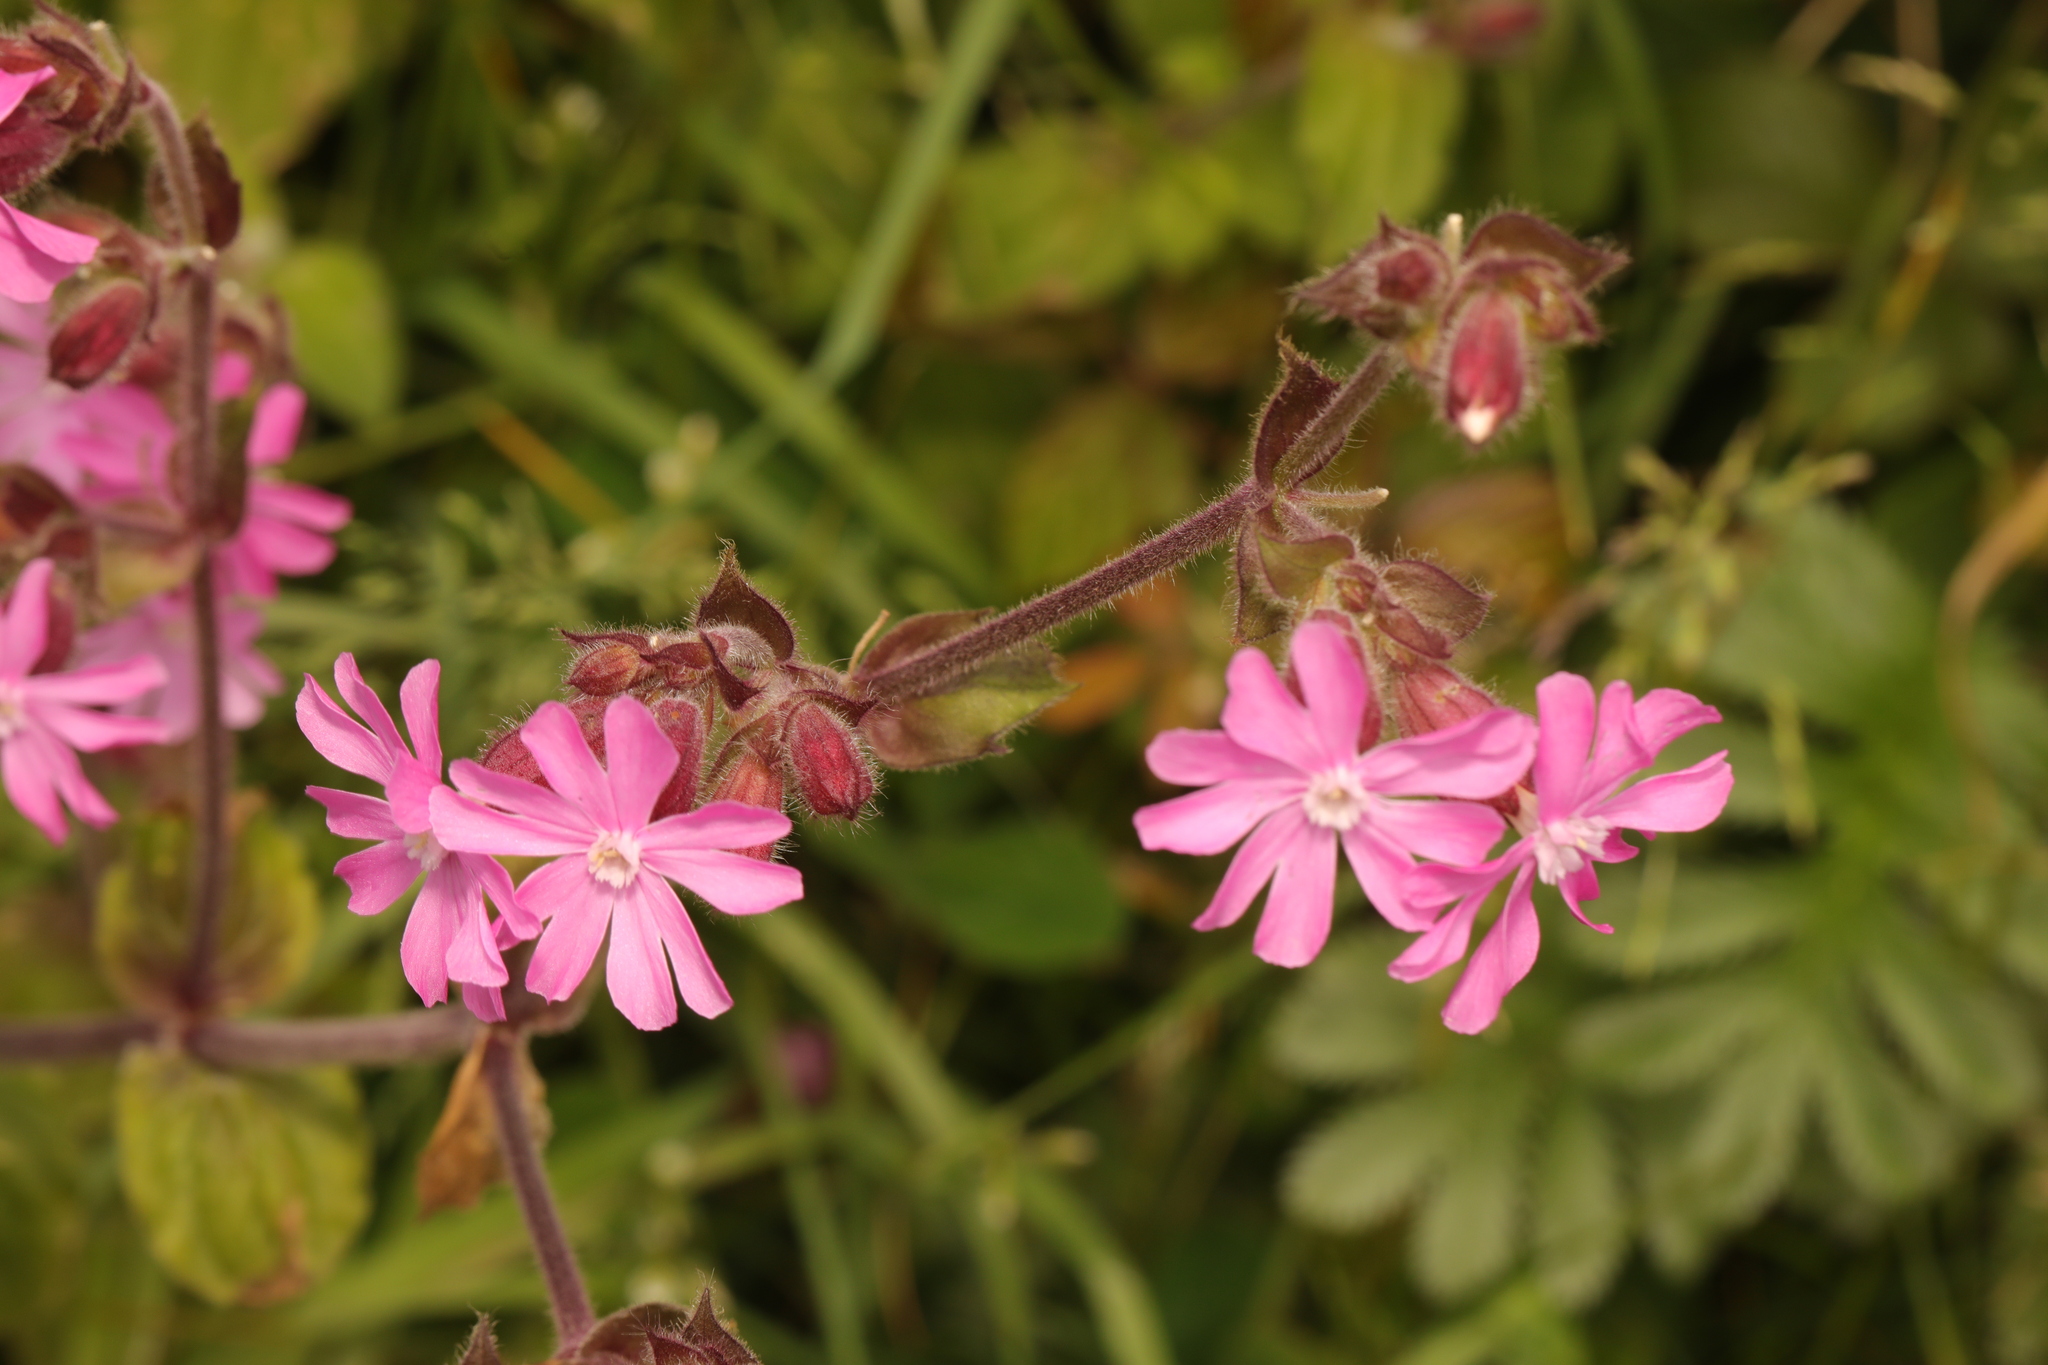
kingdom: Plantae
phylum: Tracheophyta
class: Magnoliopsida
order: Caryophyllales
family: Caryophyllaceae
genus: Silene
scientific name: Silene dioica
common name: Red campion
